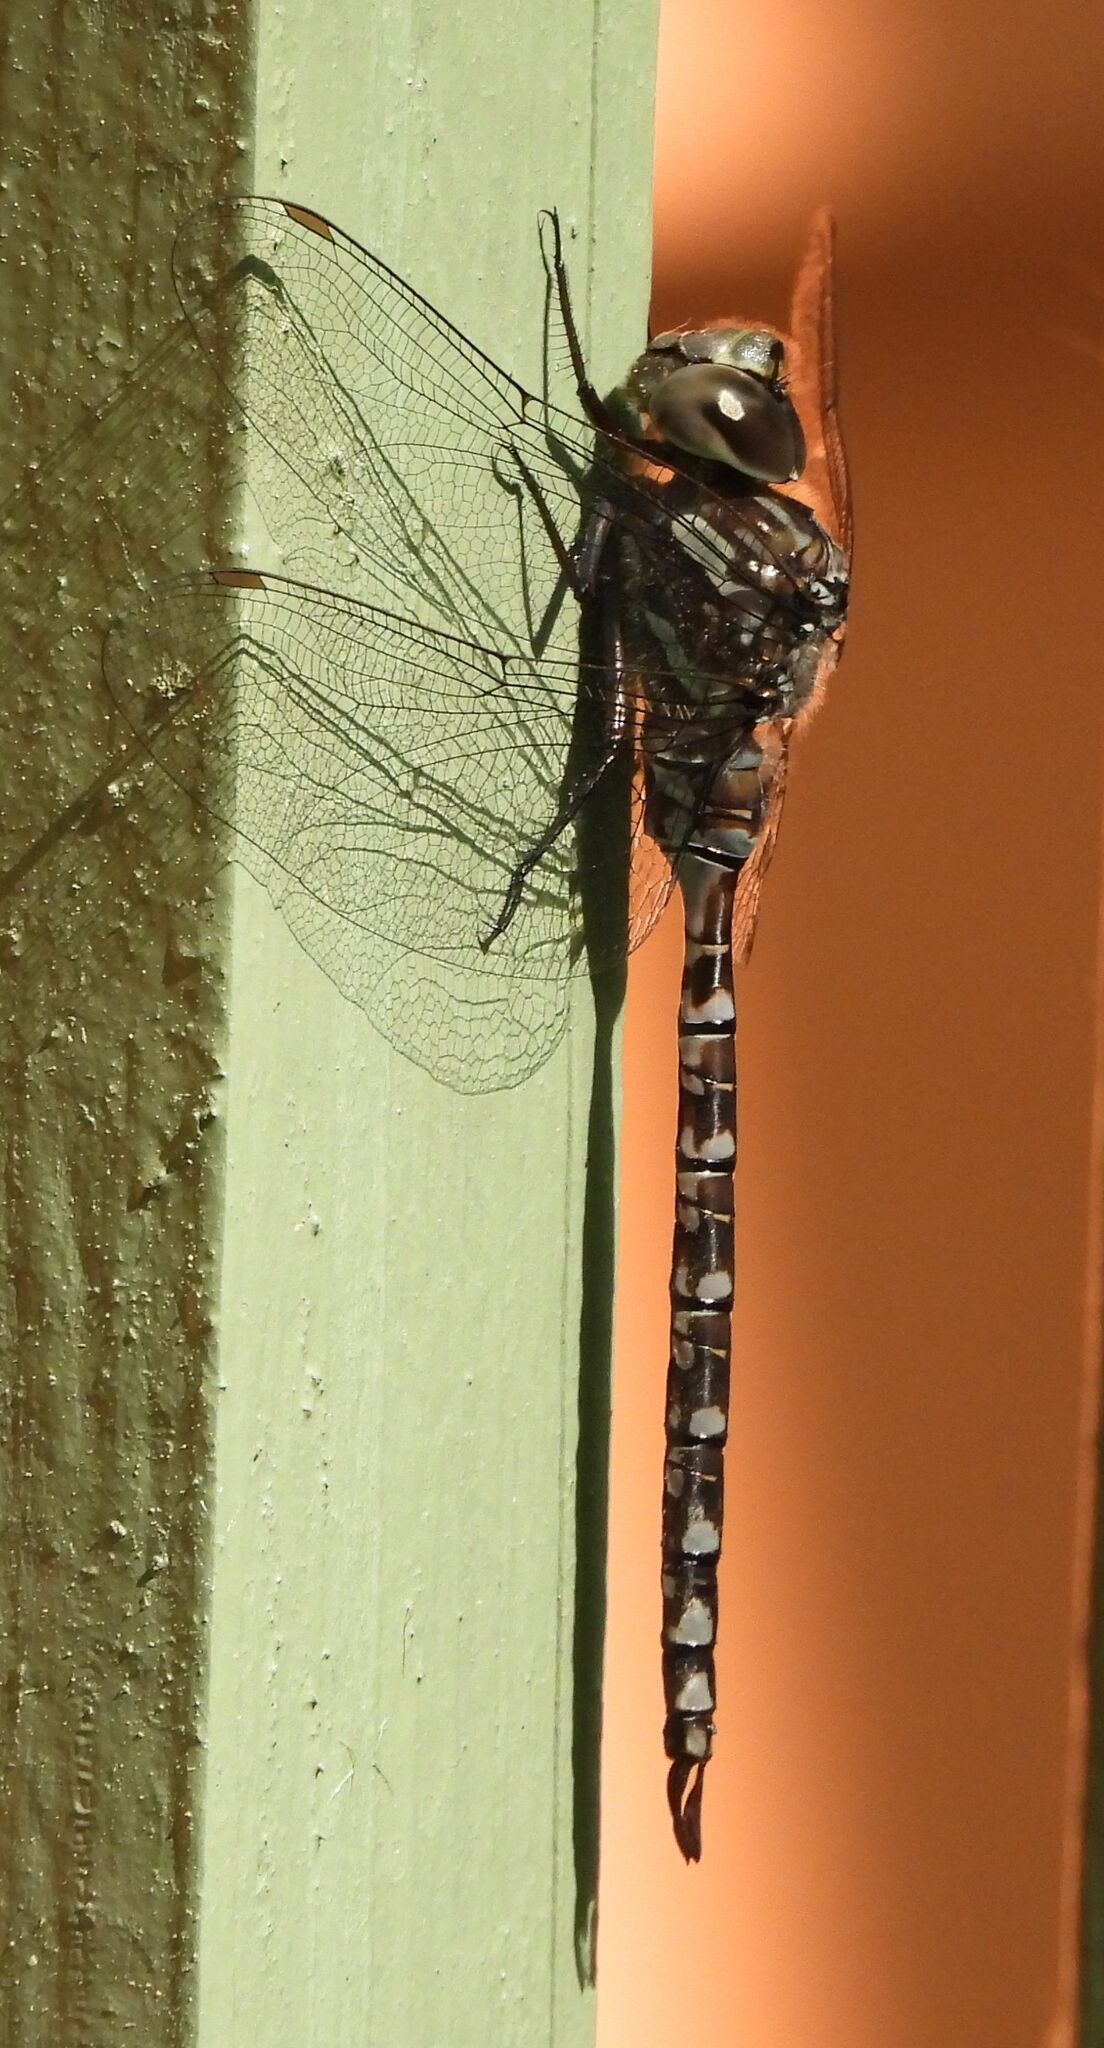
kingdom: Animalia
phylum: Arthropoda
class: Insecta
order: Odonata
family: Aeshnidae
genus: Aeshna
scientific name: Aeshna canadensis
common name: Canada darner
